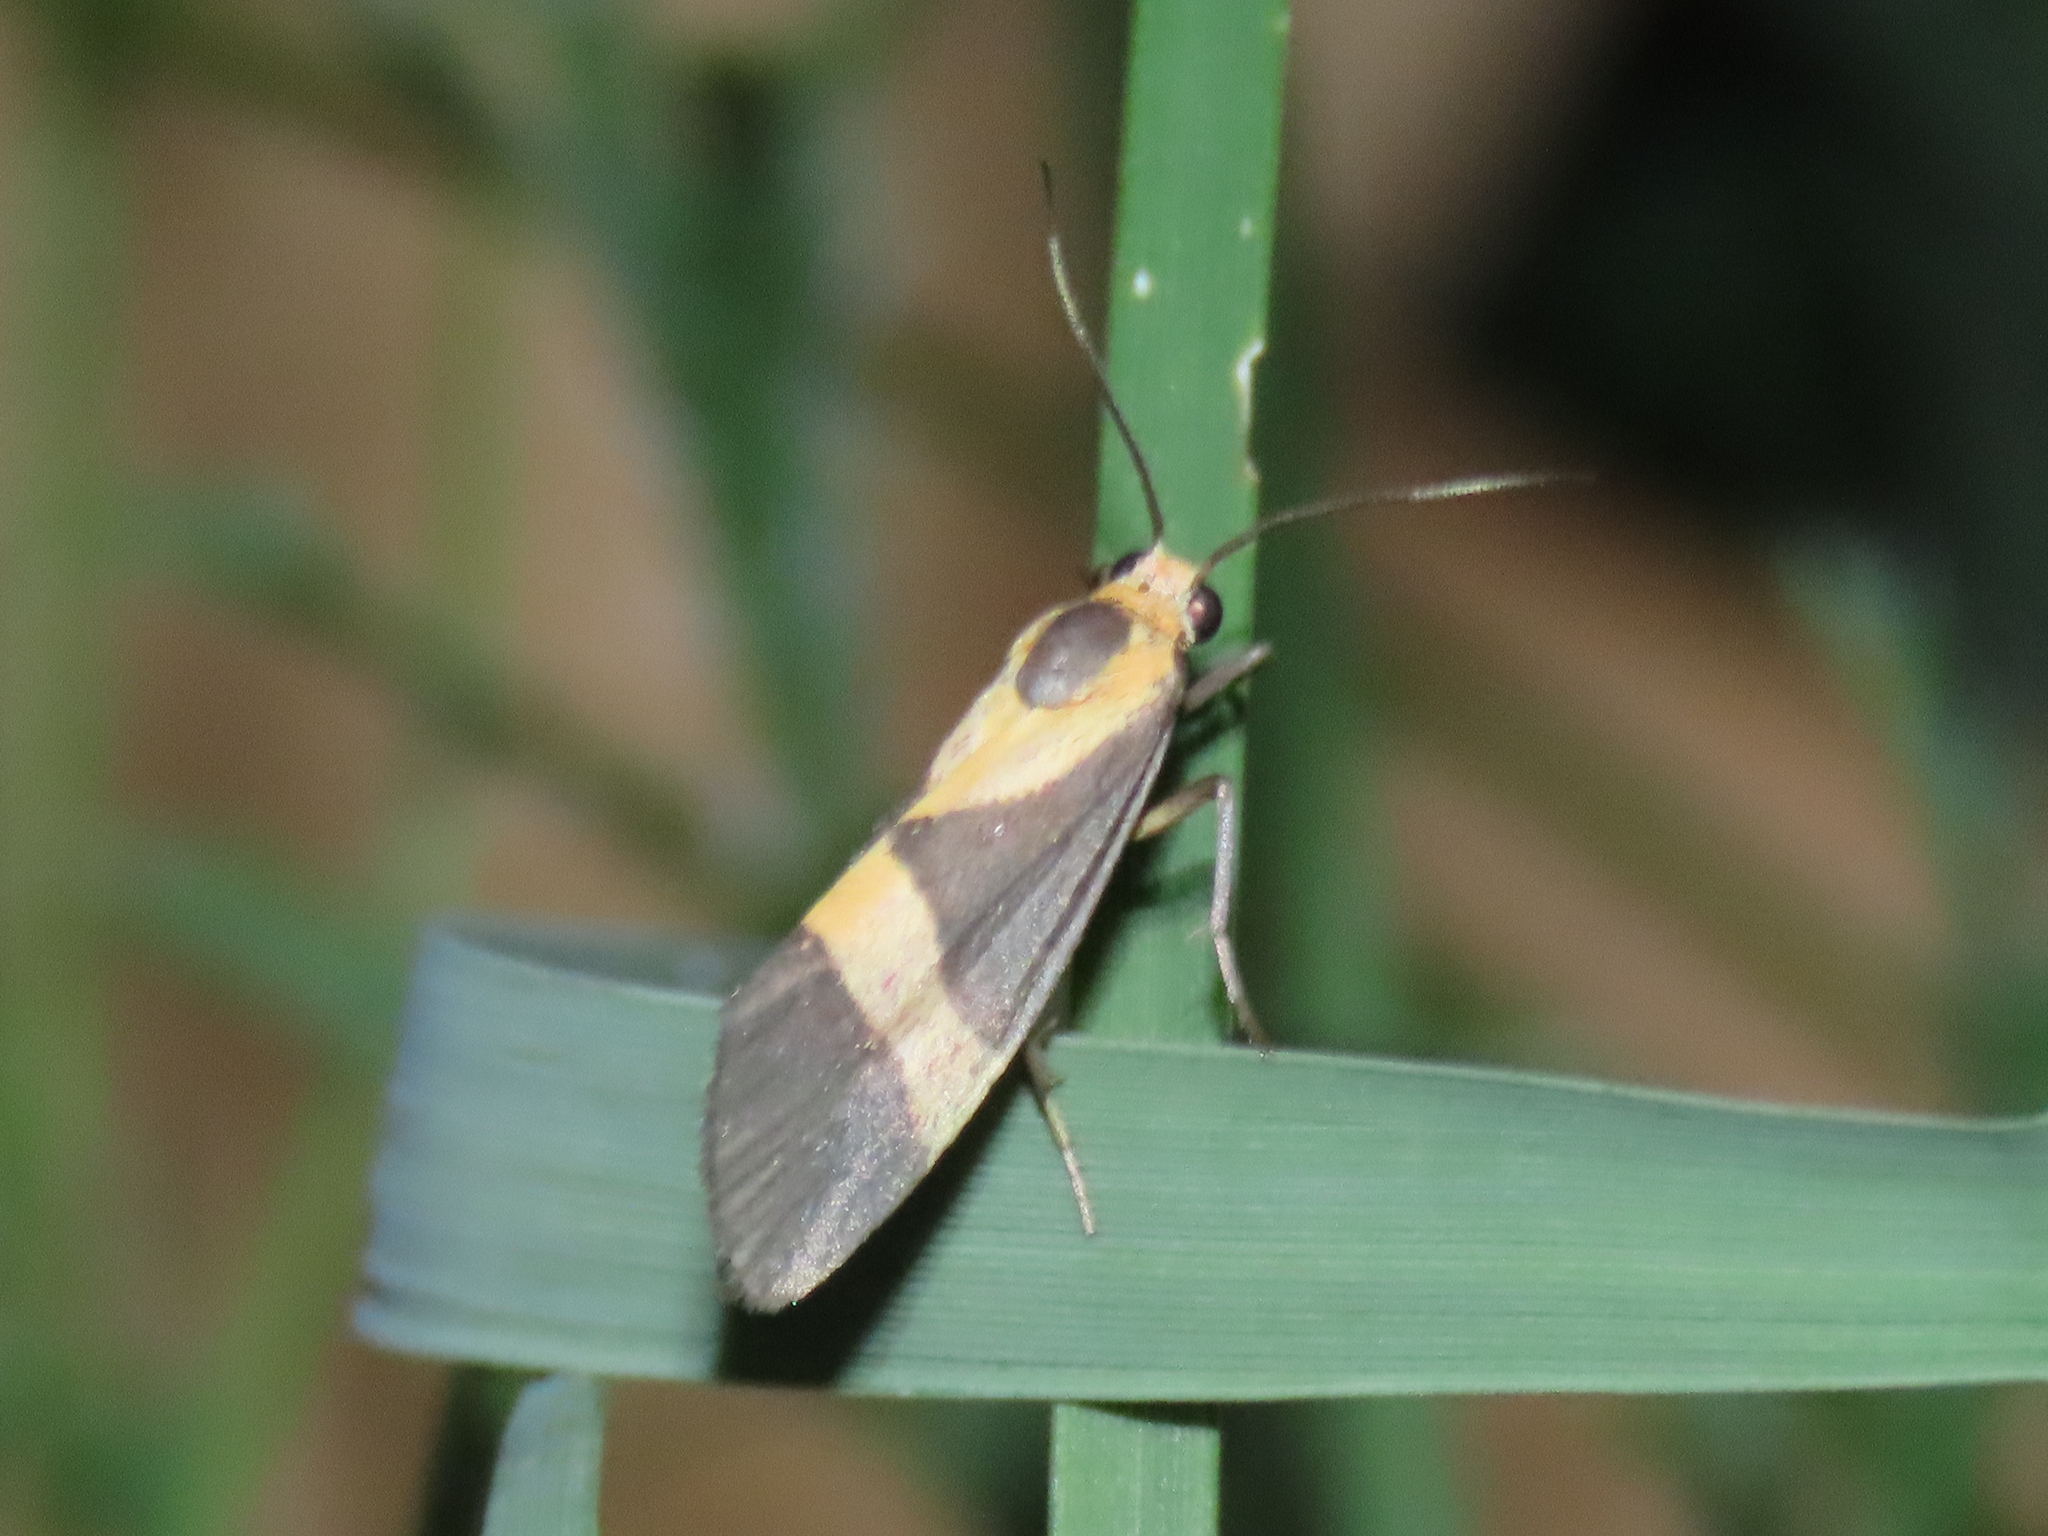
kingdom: Animalia
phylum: Arthropoda
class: Insecta
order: Lepidoptera
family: Erebidae
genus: Cisthene
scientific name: Cisthene tenuifascia
